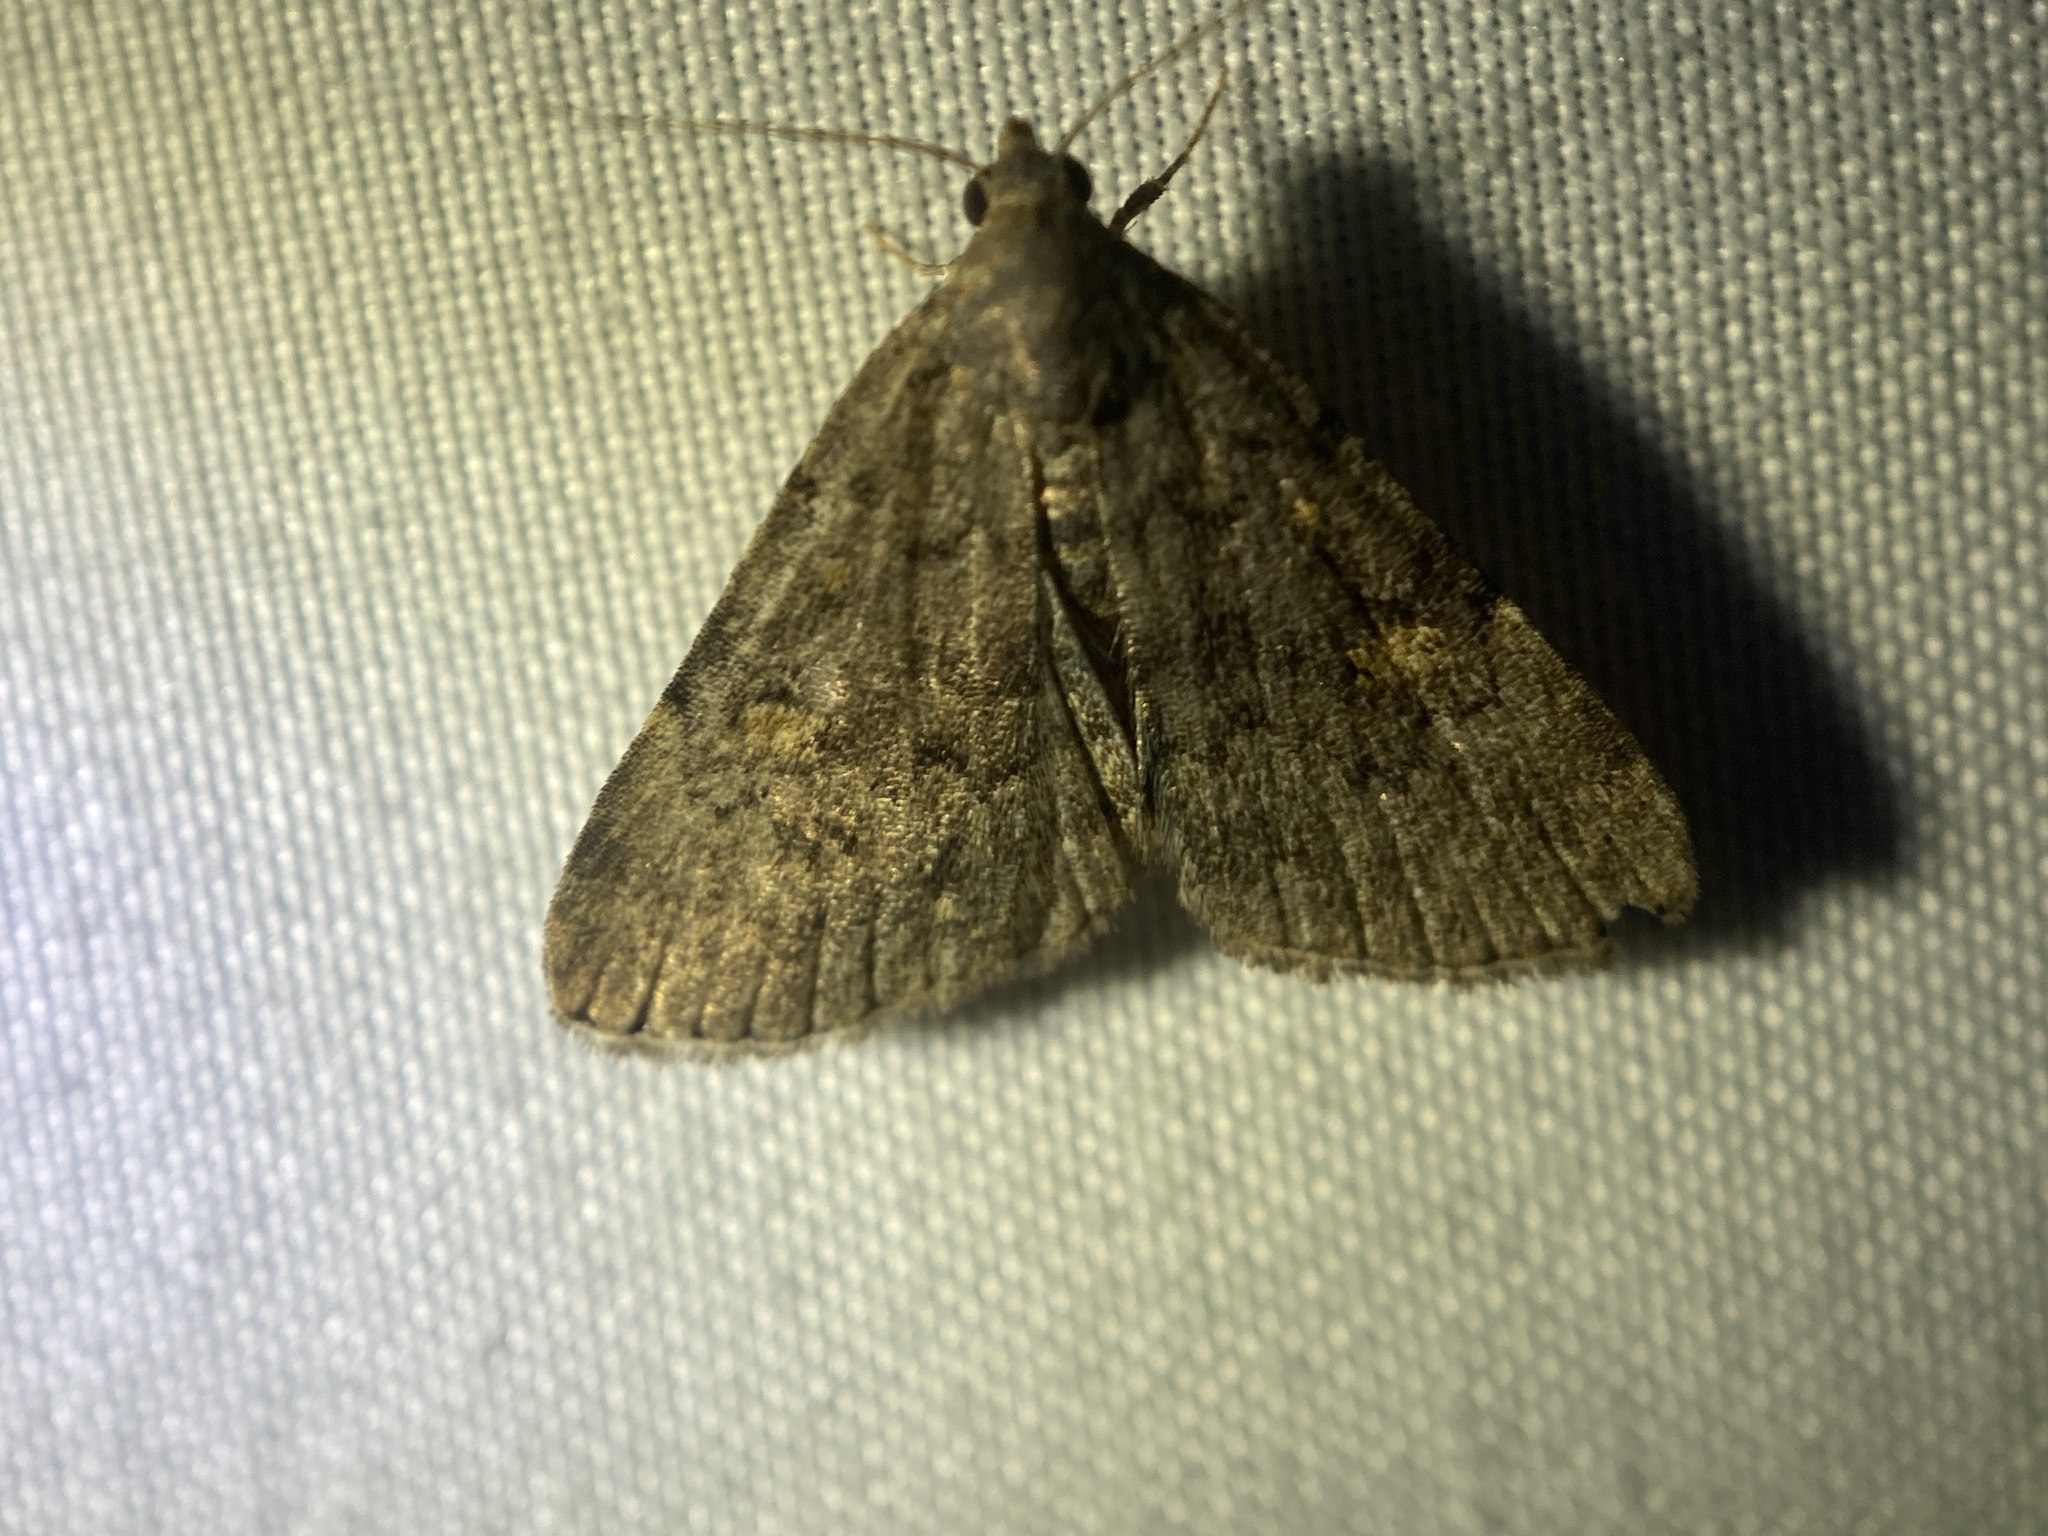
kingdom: Animalia
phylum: Arthropoda
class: Insecta
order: Lepidoptera
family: Erebidae
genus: Idia
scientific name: Idia aemula
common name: Common idia moth
